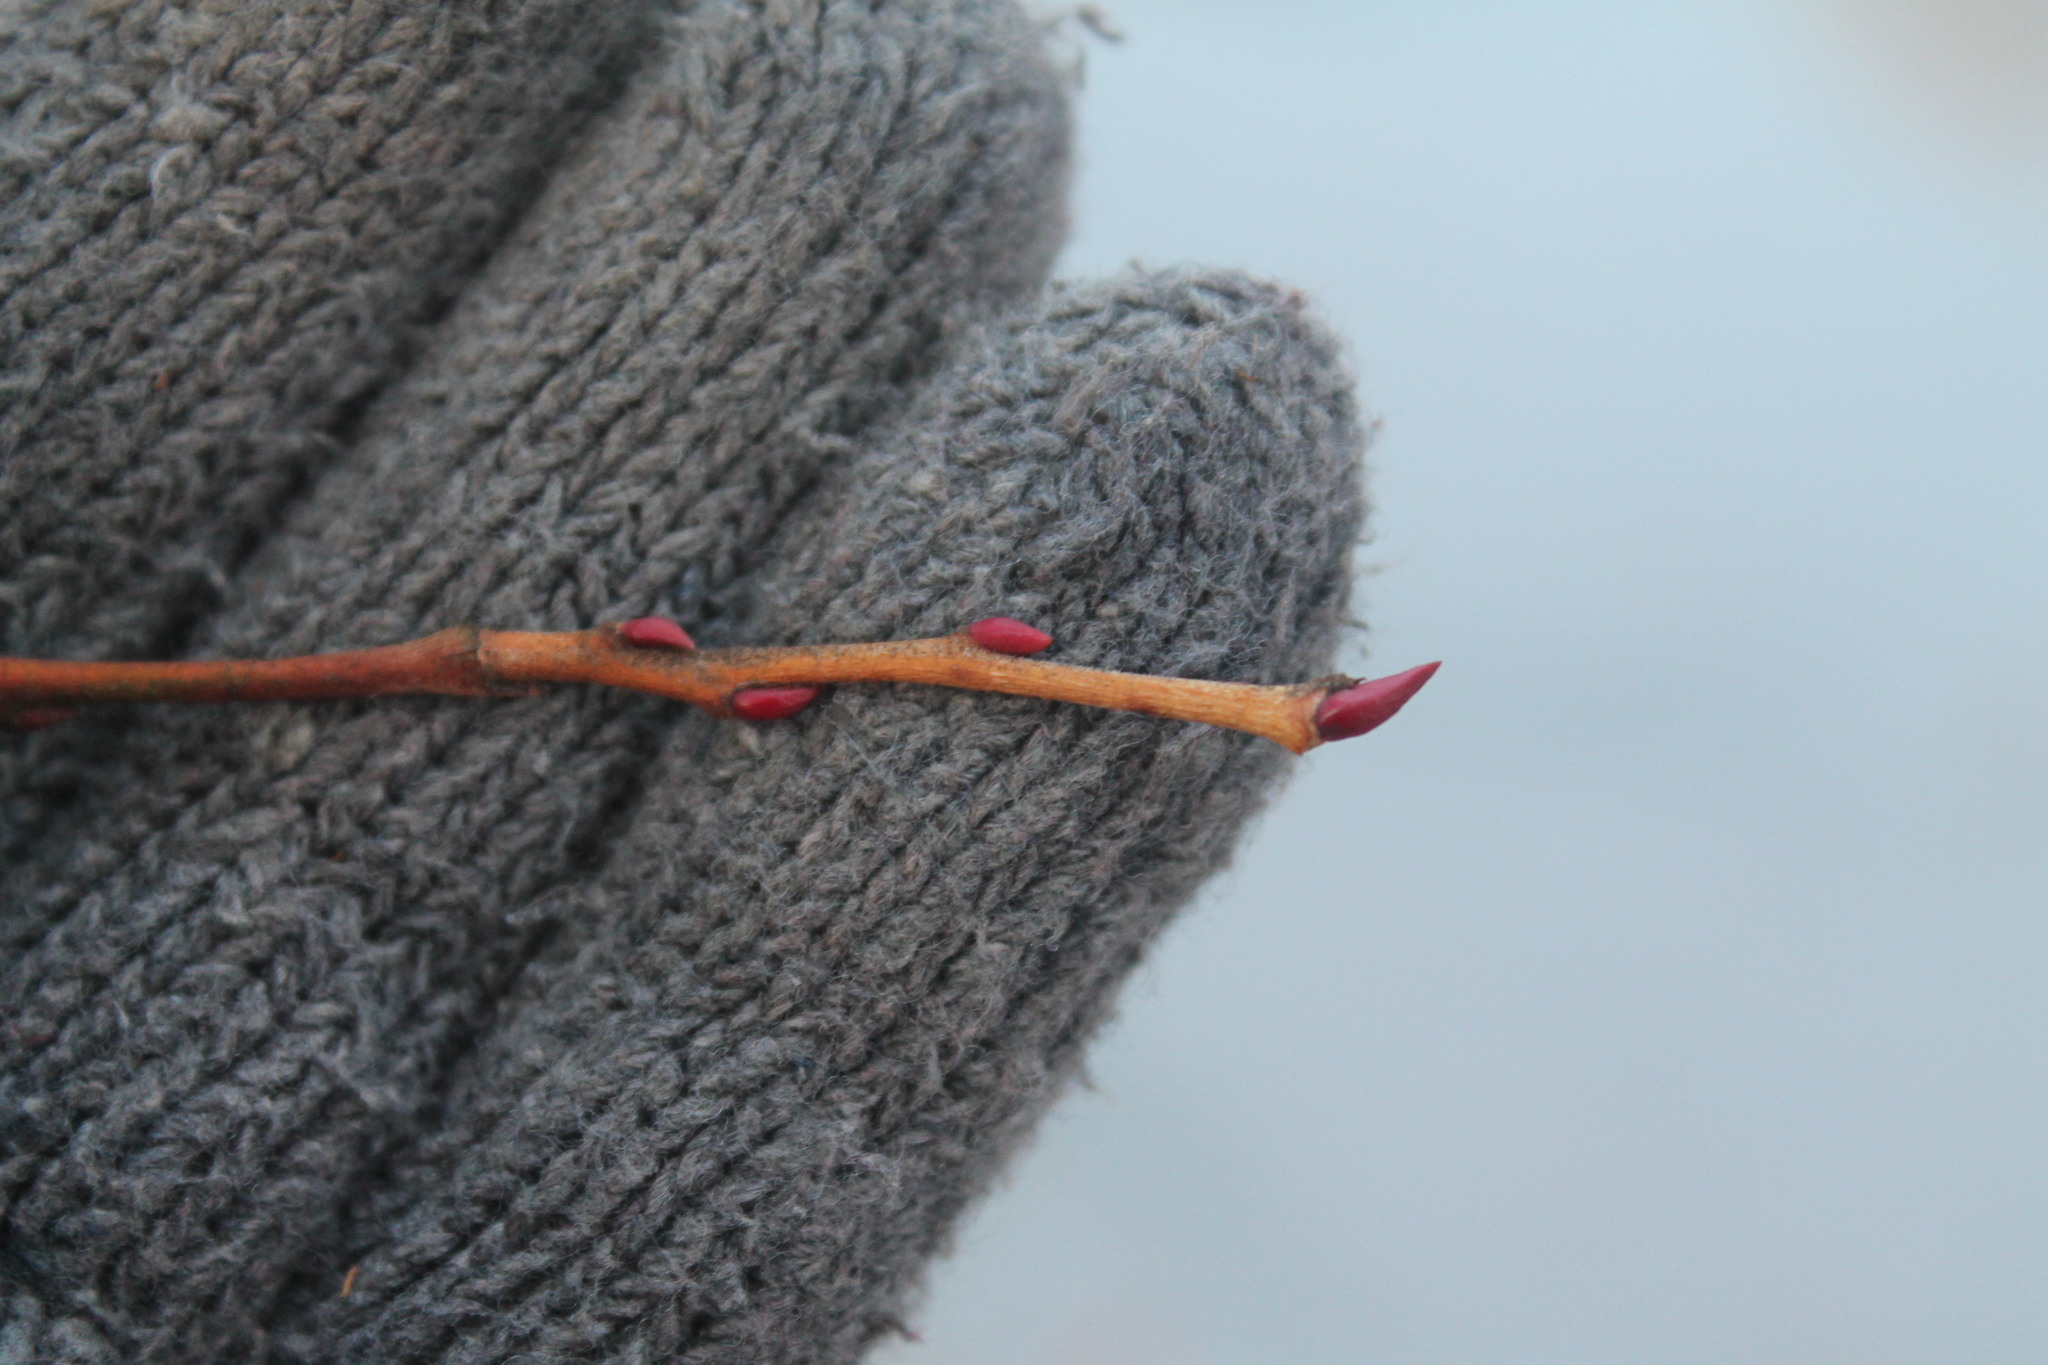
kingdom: Plantae
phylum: Tracheophyta
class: Magnoliopsida
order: Ericales
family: Ericaceae
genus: Lyonia
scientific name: Lyonia ligustrina
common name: Maleberry
